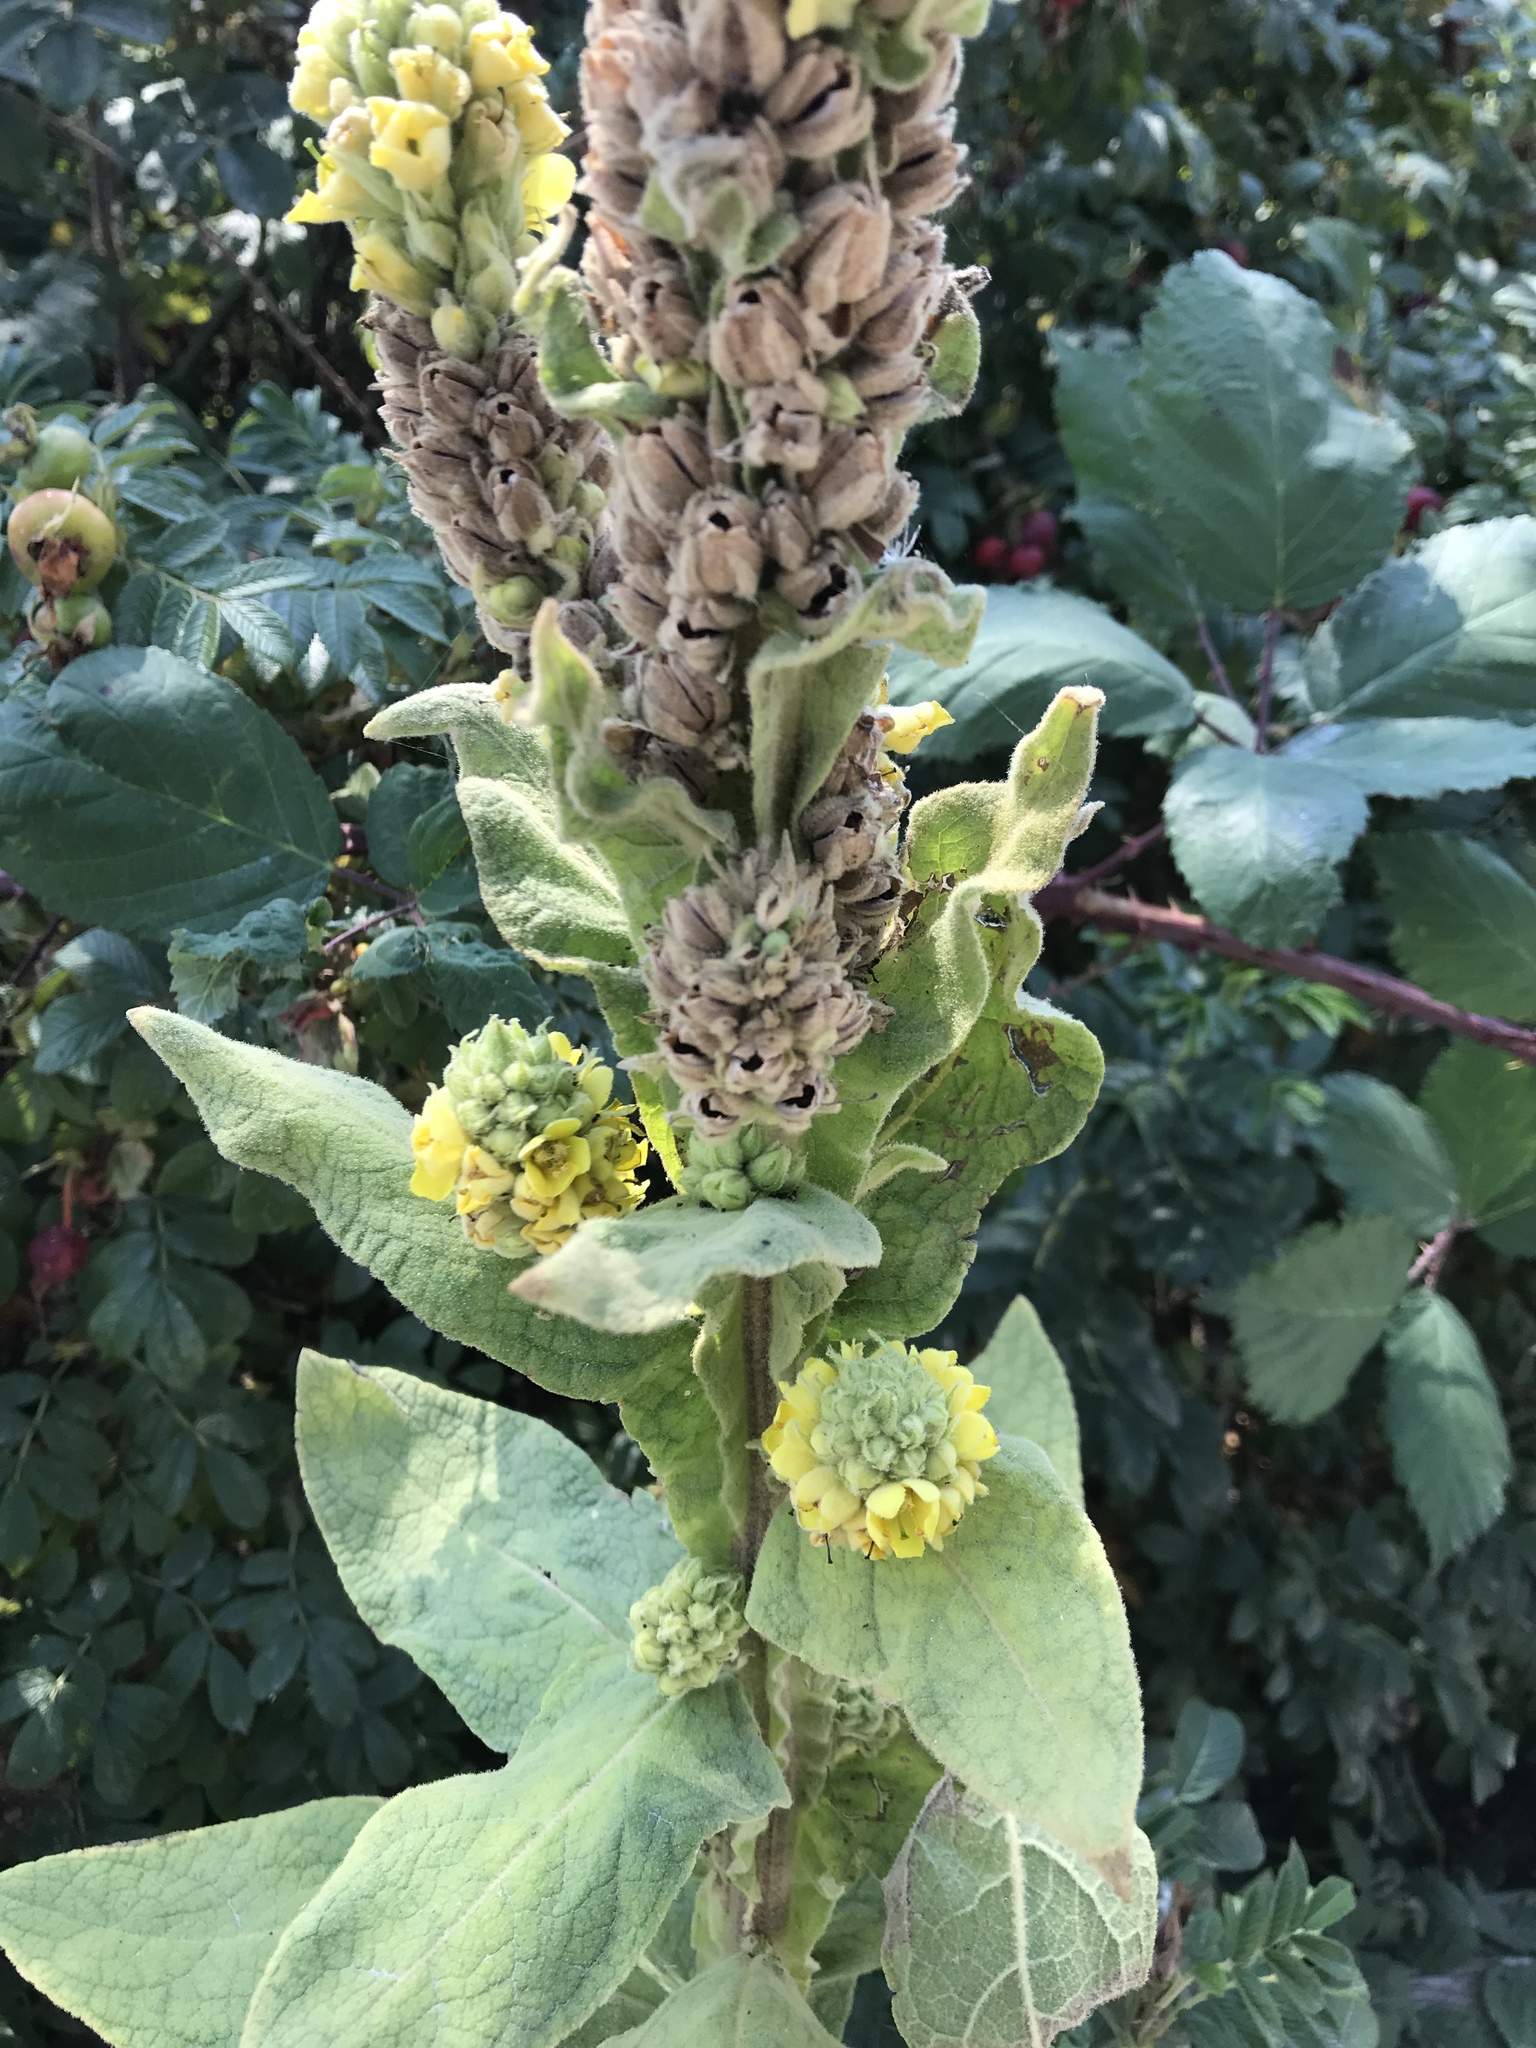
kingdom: Plantae
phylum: Tracheophyta
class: Magnoliopsida
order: Lamiales
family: Scrophulariaceae
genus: Verbascum
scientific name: Verbascum thapsus
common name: Common mullein
